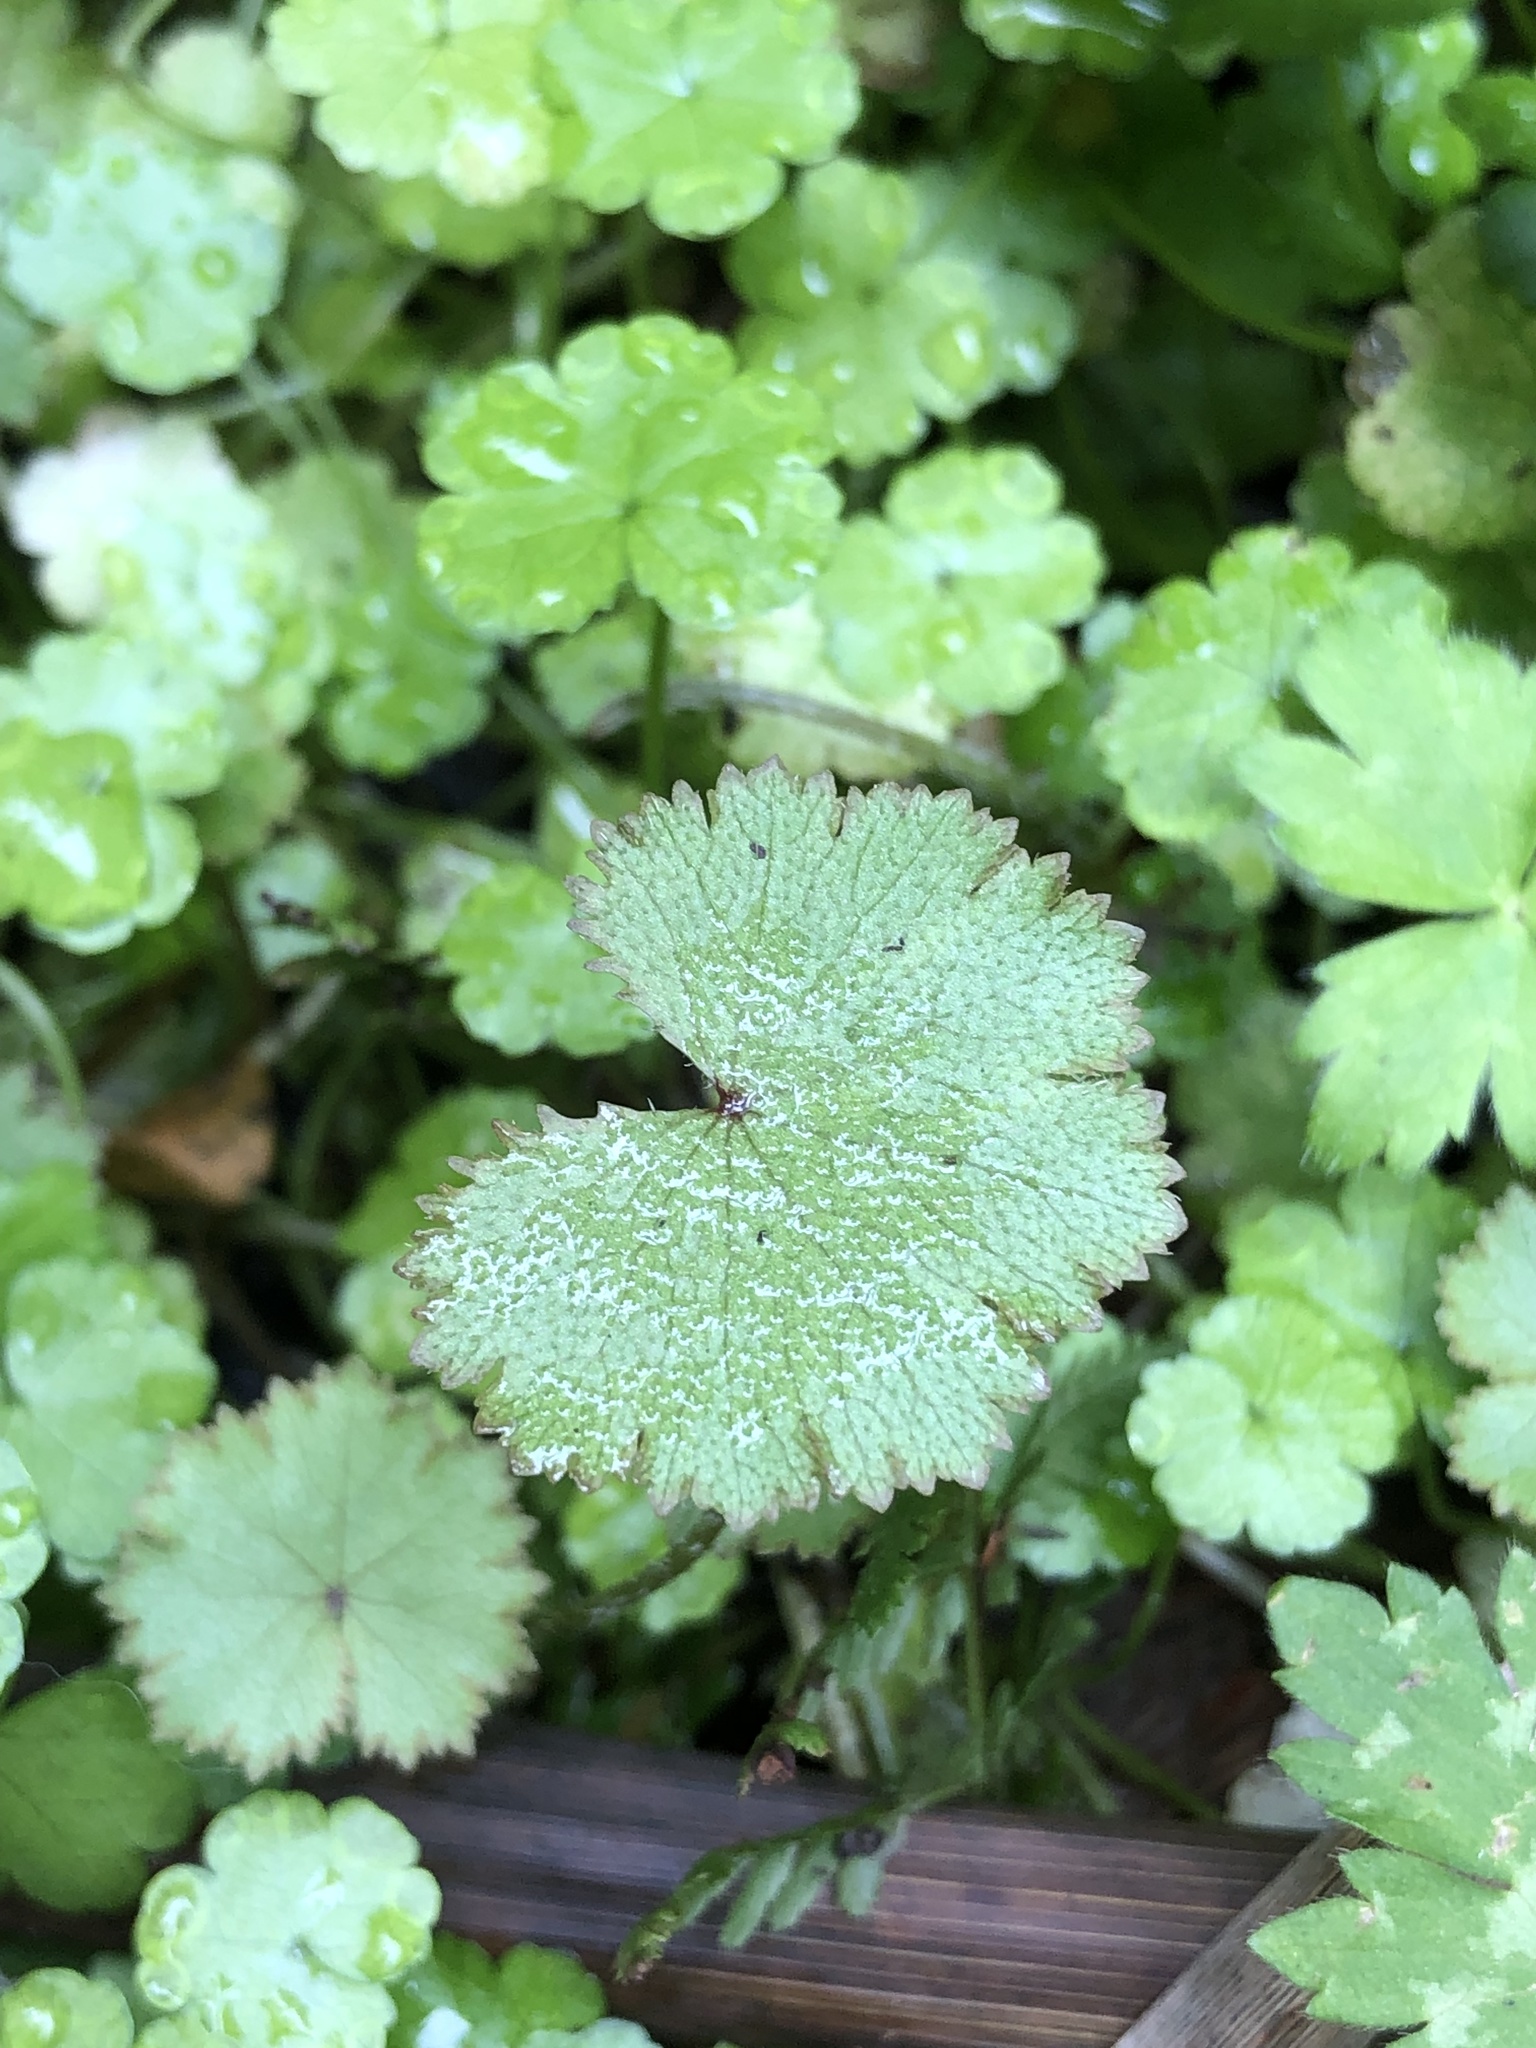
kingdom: Plantae
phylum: Tracheophyta
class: Magnoliopsida
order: Apiales
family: Araliaceae
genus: Hydrocotyle
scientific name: Hydrocotyle moschata
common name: Hairy pennywort
